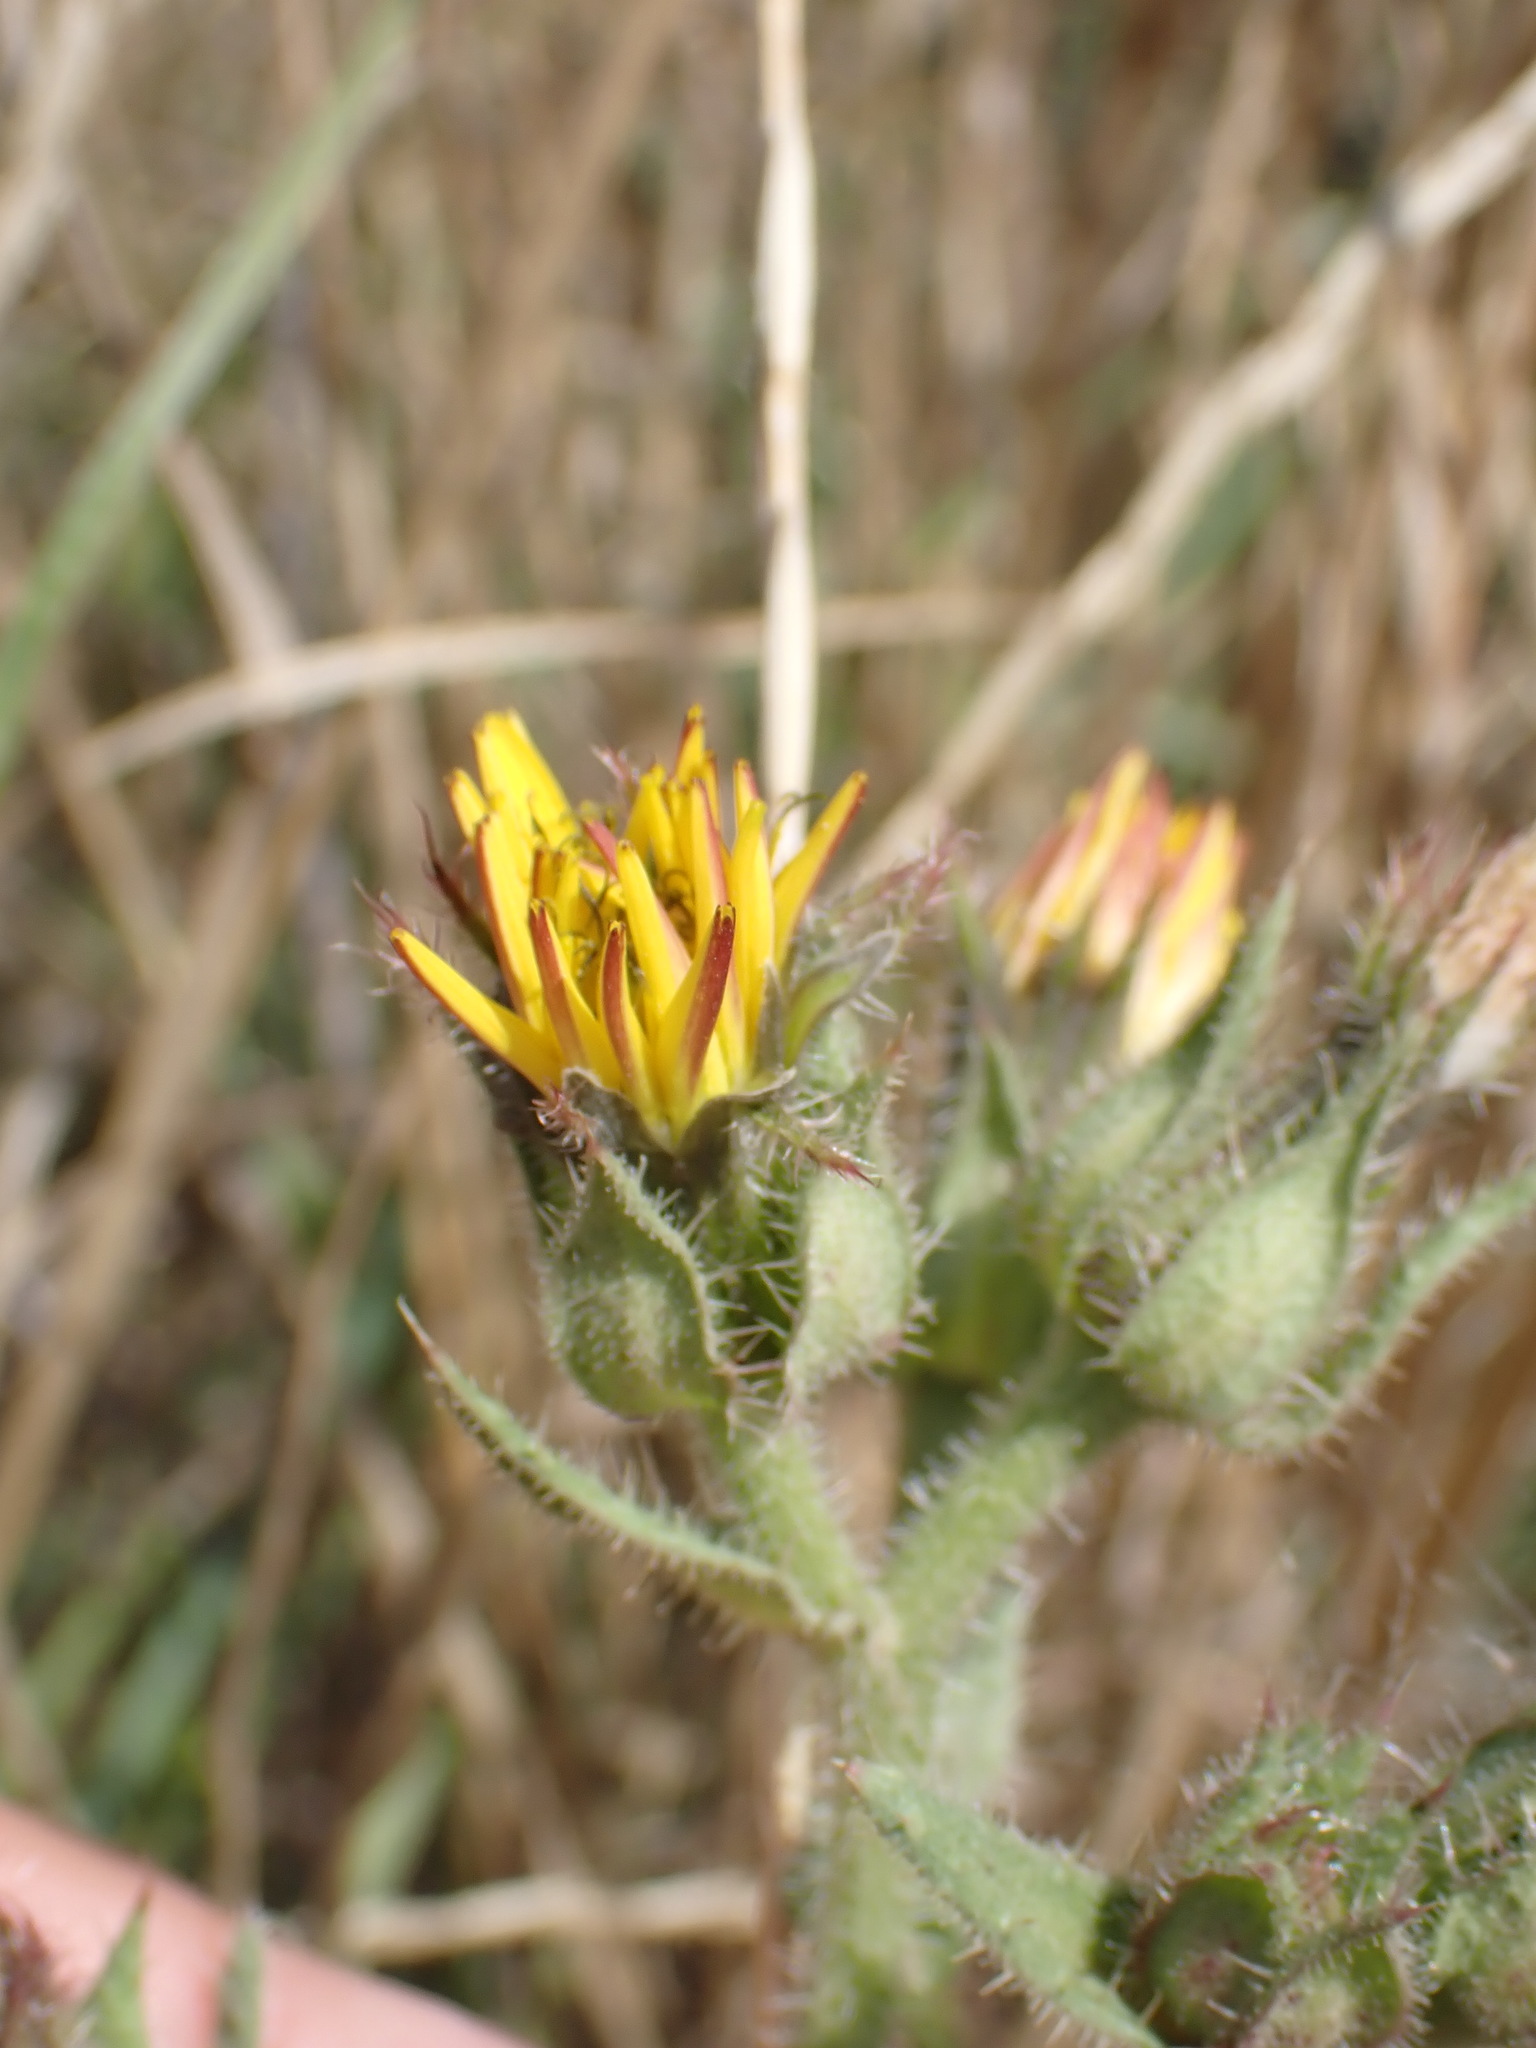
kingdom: Plantae
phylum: Tracheophyta
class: Magnoliopsida
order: Asterales
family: Asteraceae
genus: Helminthotheca
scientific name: Helminthotheca echioides
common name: Ox-tongue
